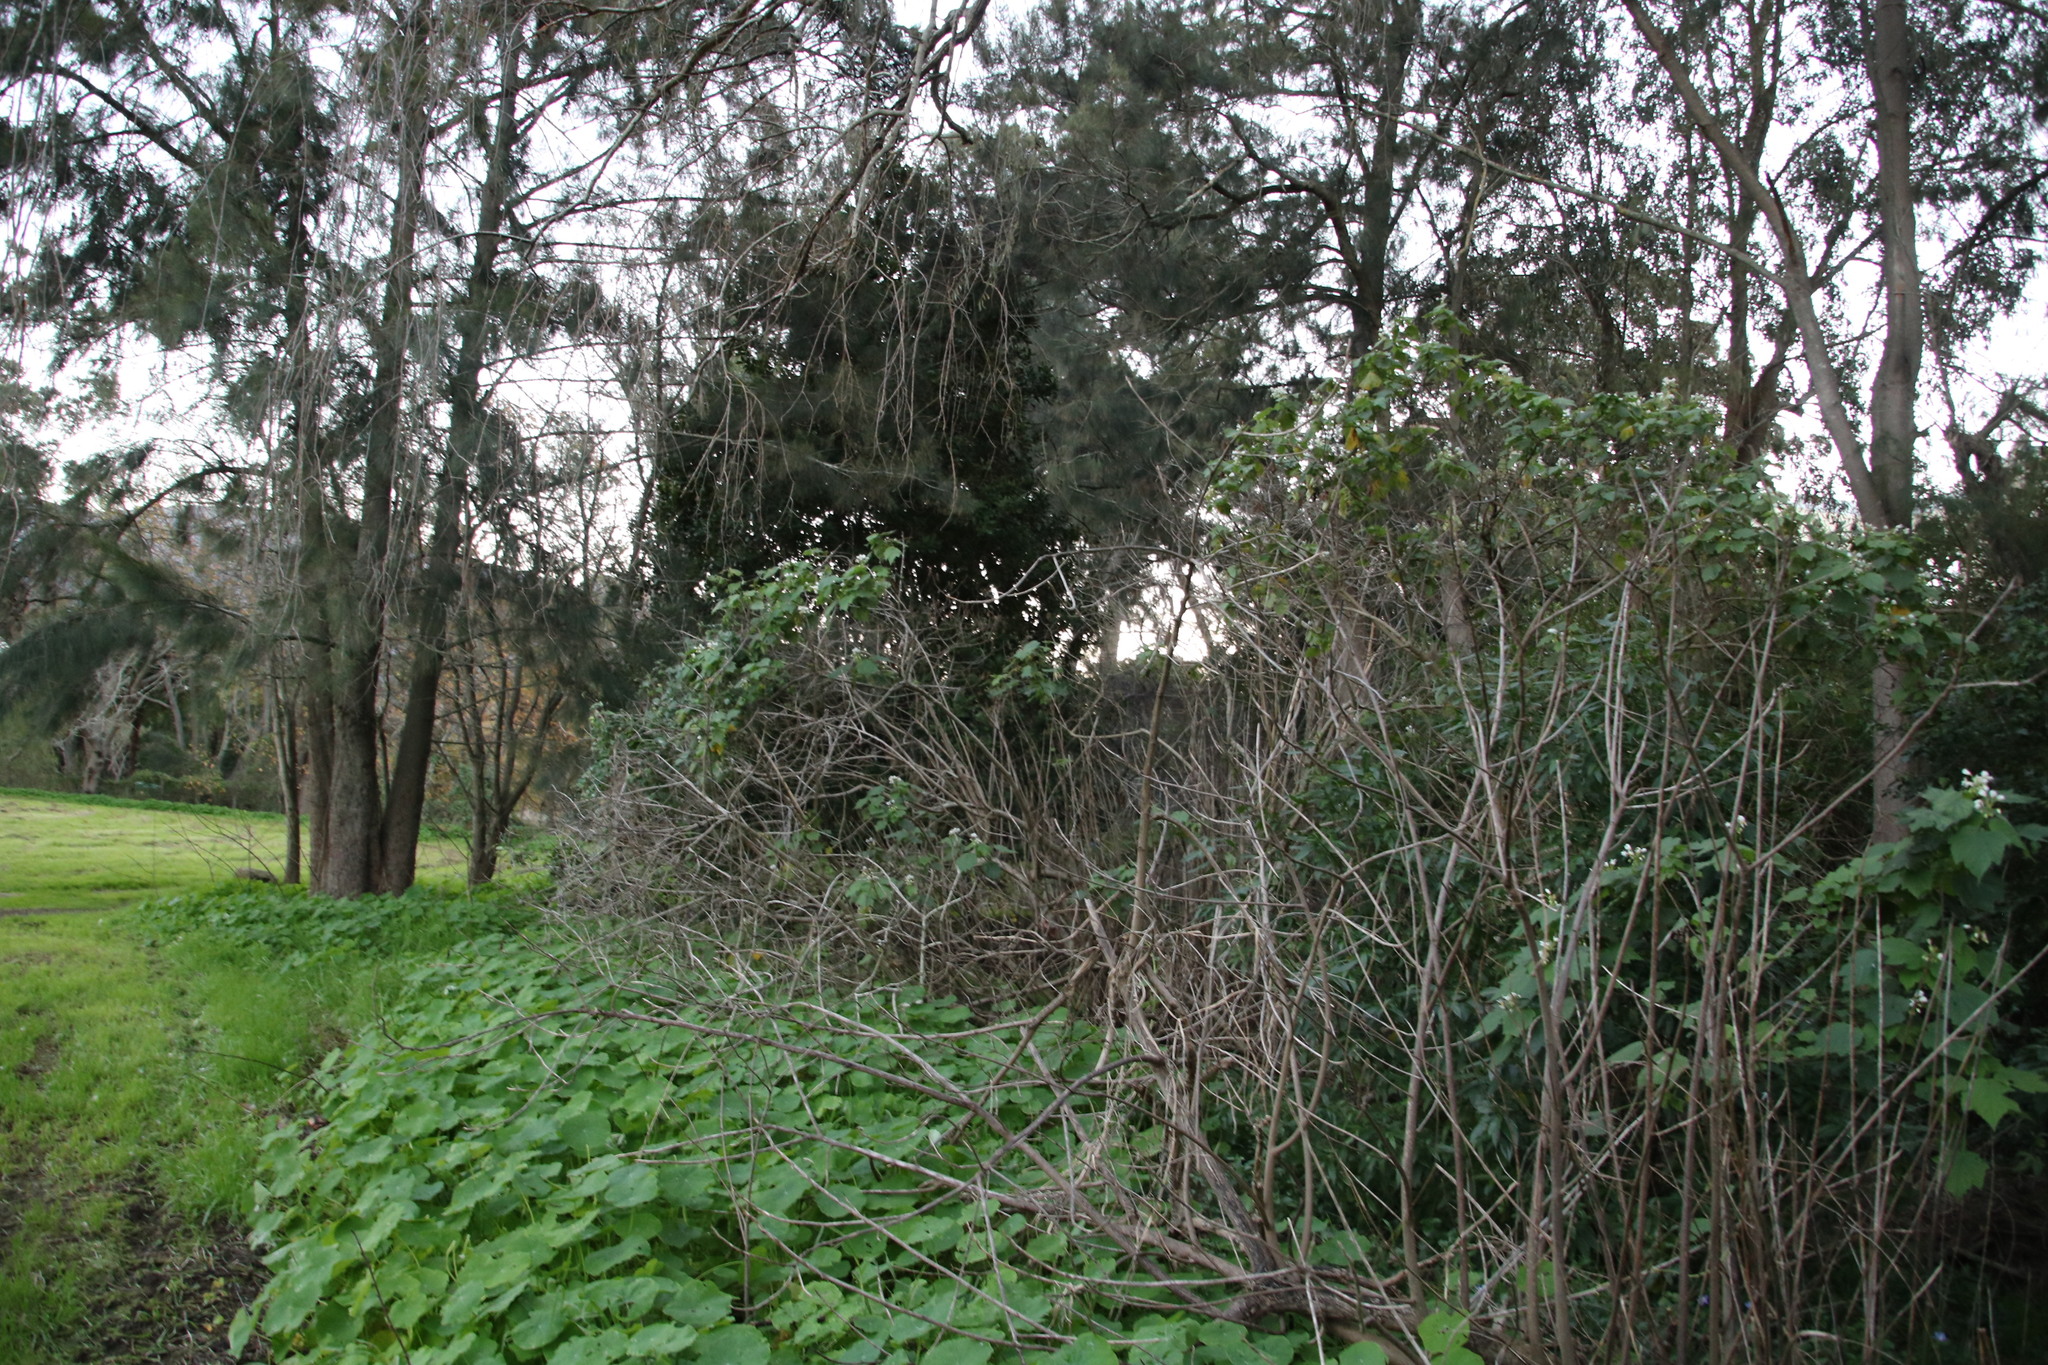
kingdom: Plantae
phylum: Tracheophyta
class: Magnoliopsida
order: Malvales
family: Malvaceae
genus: Sparrmannia
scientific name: Sparrmannia africana
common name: African-hemp
